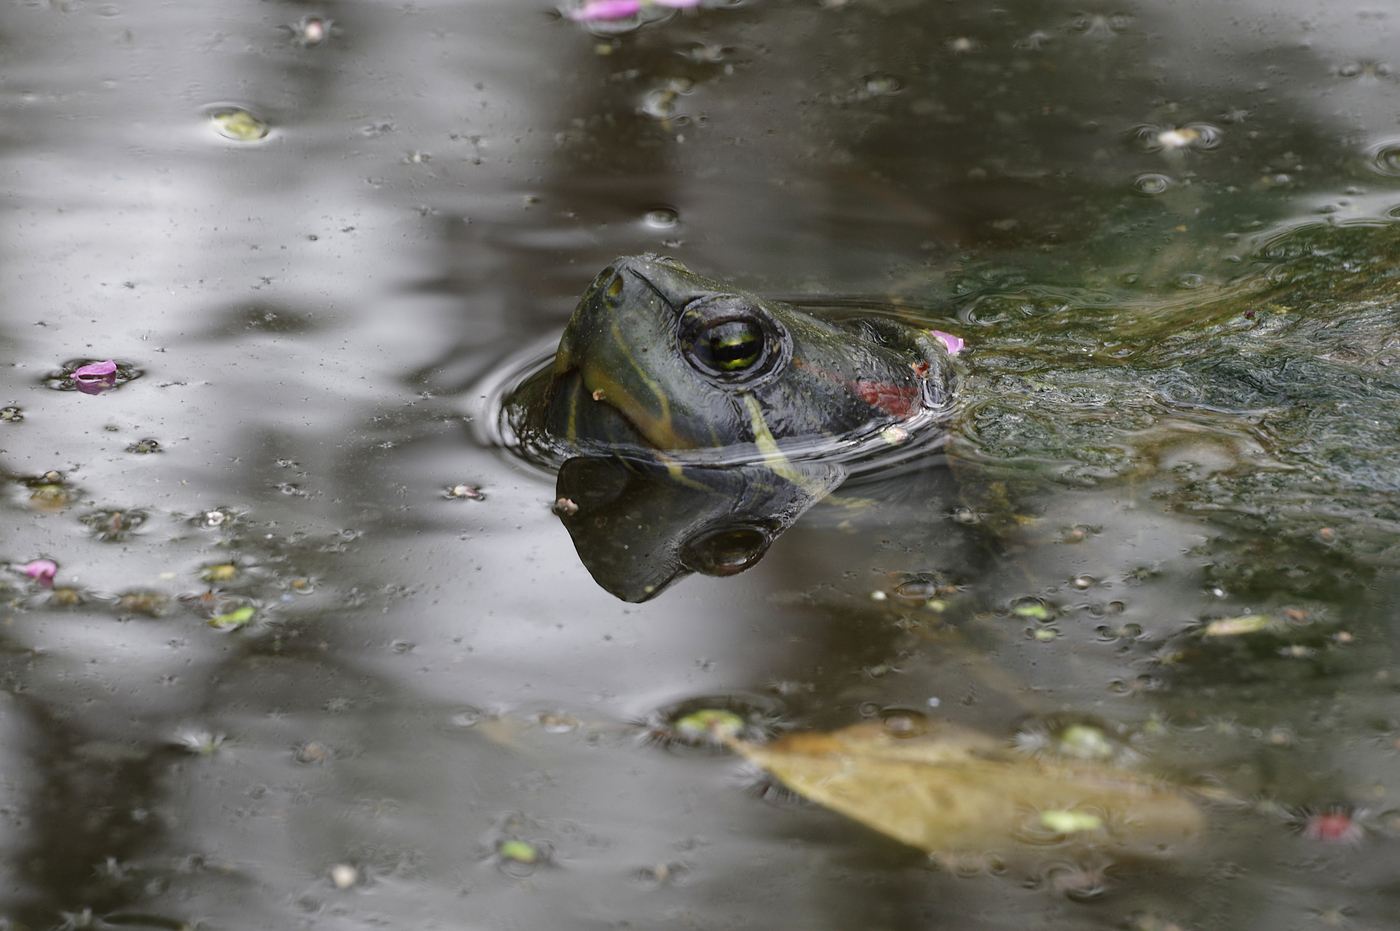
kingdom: Animalia
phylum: Chordata
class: Testudines
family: Emydidae
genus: Trachemys
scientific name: Trachemys scripta
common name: Slider
